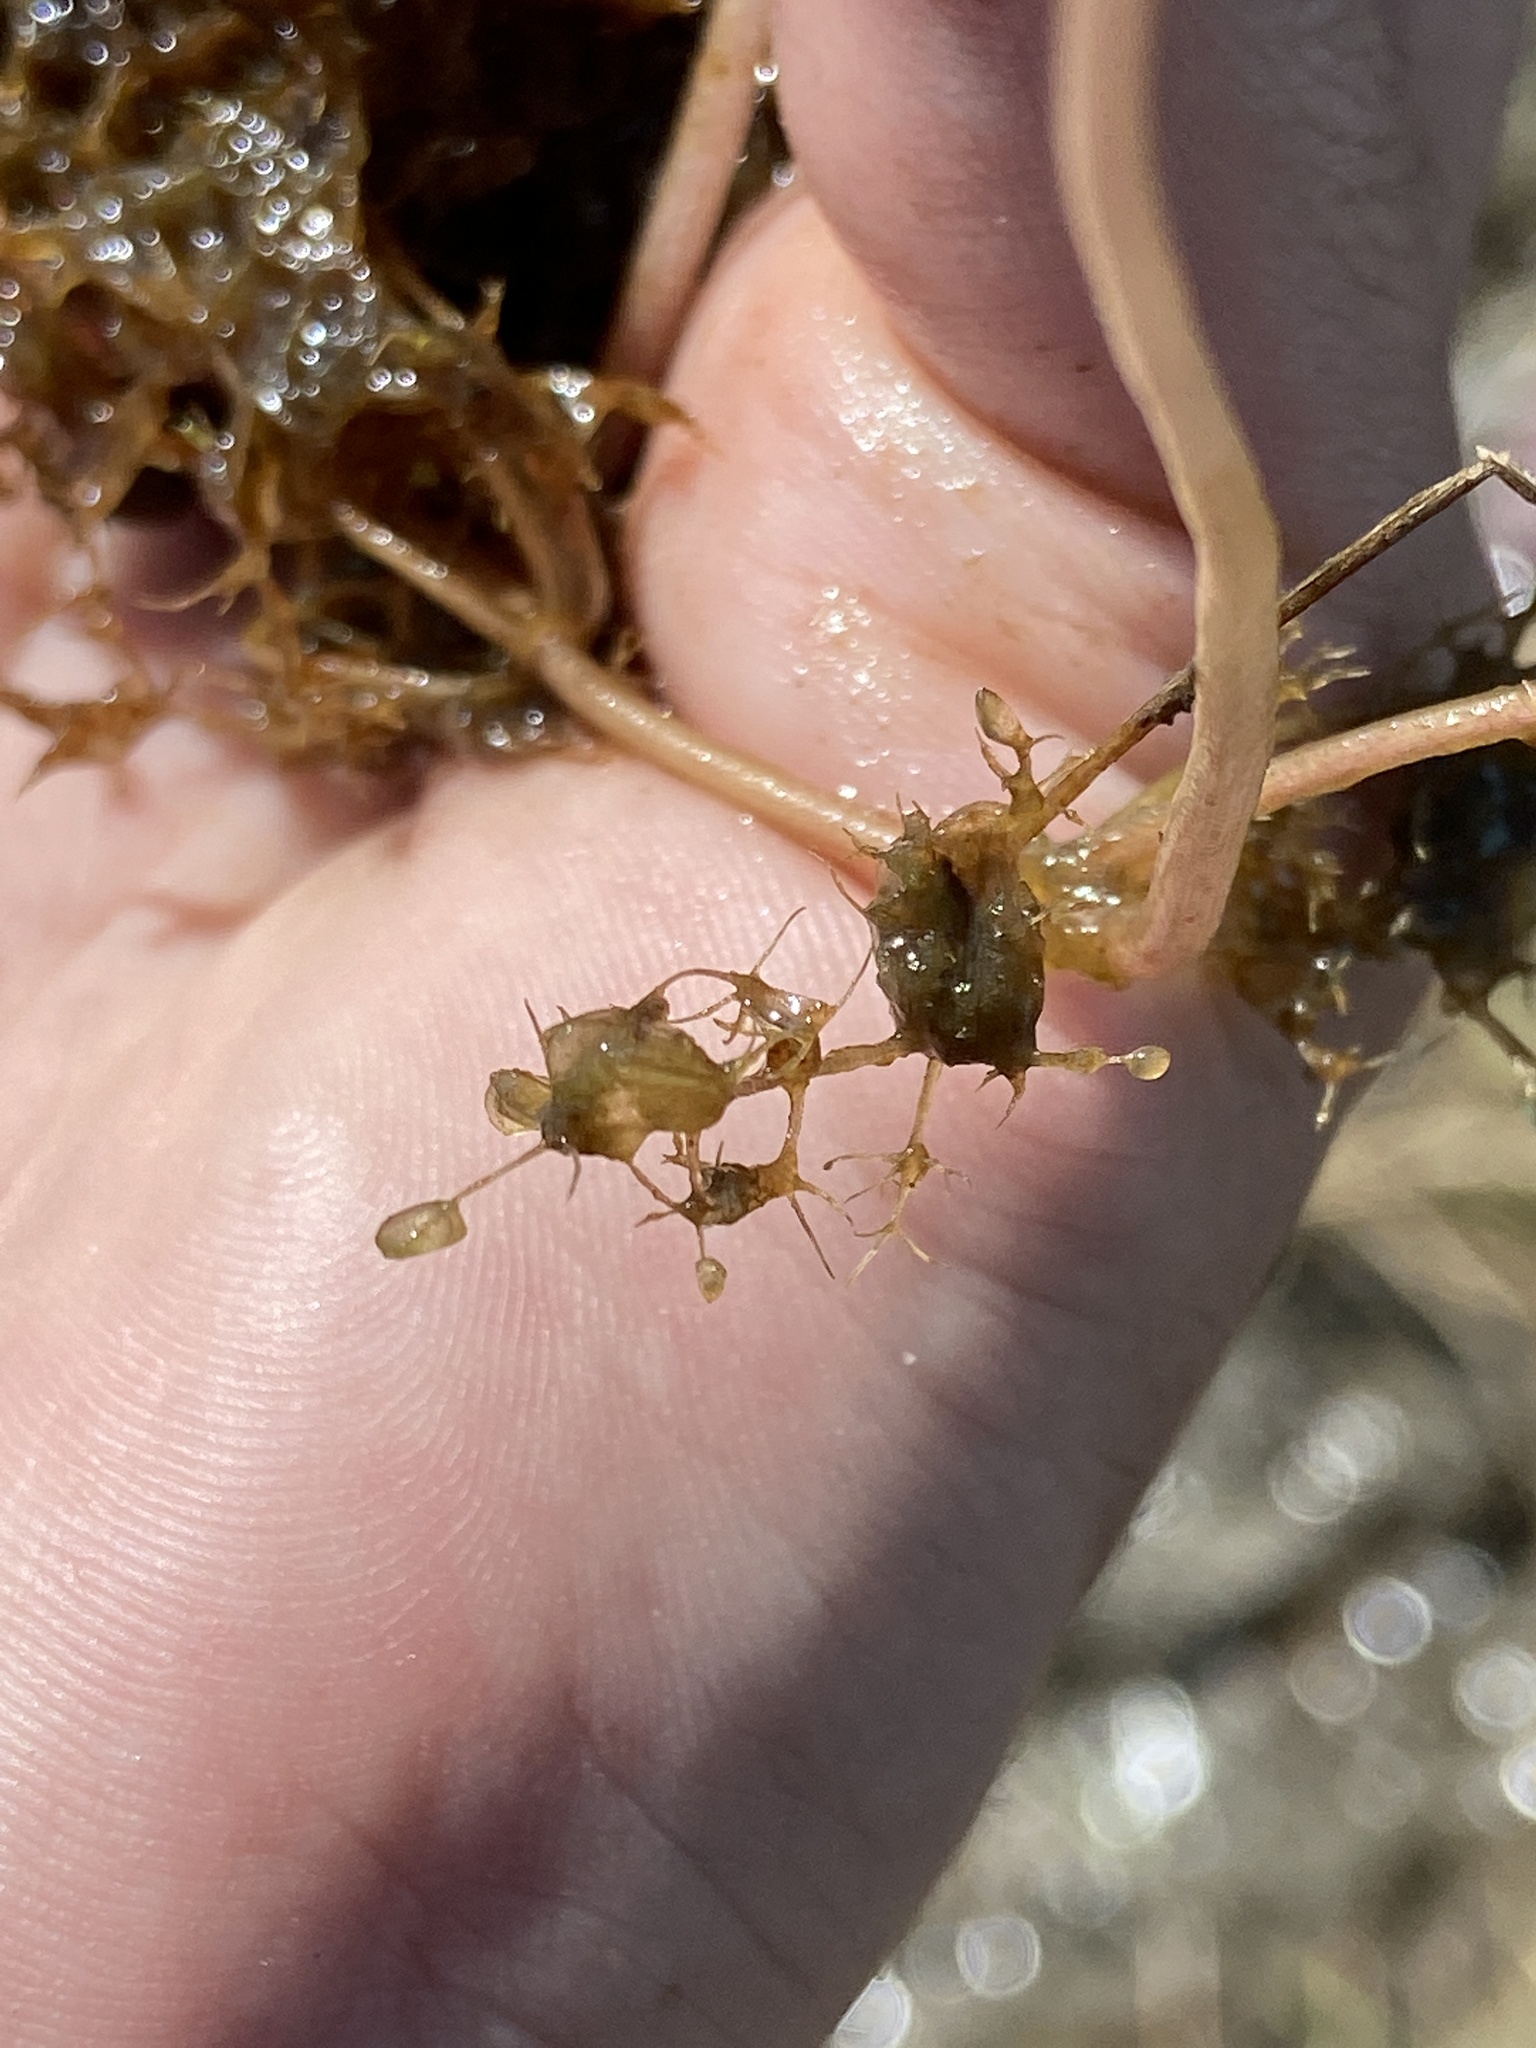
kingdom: Plantae
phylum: Tracheophyta
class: Magnoliopsida
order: Lamiales
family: Lentibulariaceae
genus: Utricularia
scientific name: Utricularia purpurea
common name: Eastern purple bladderwort
